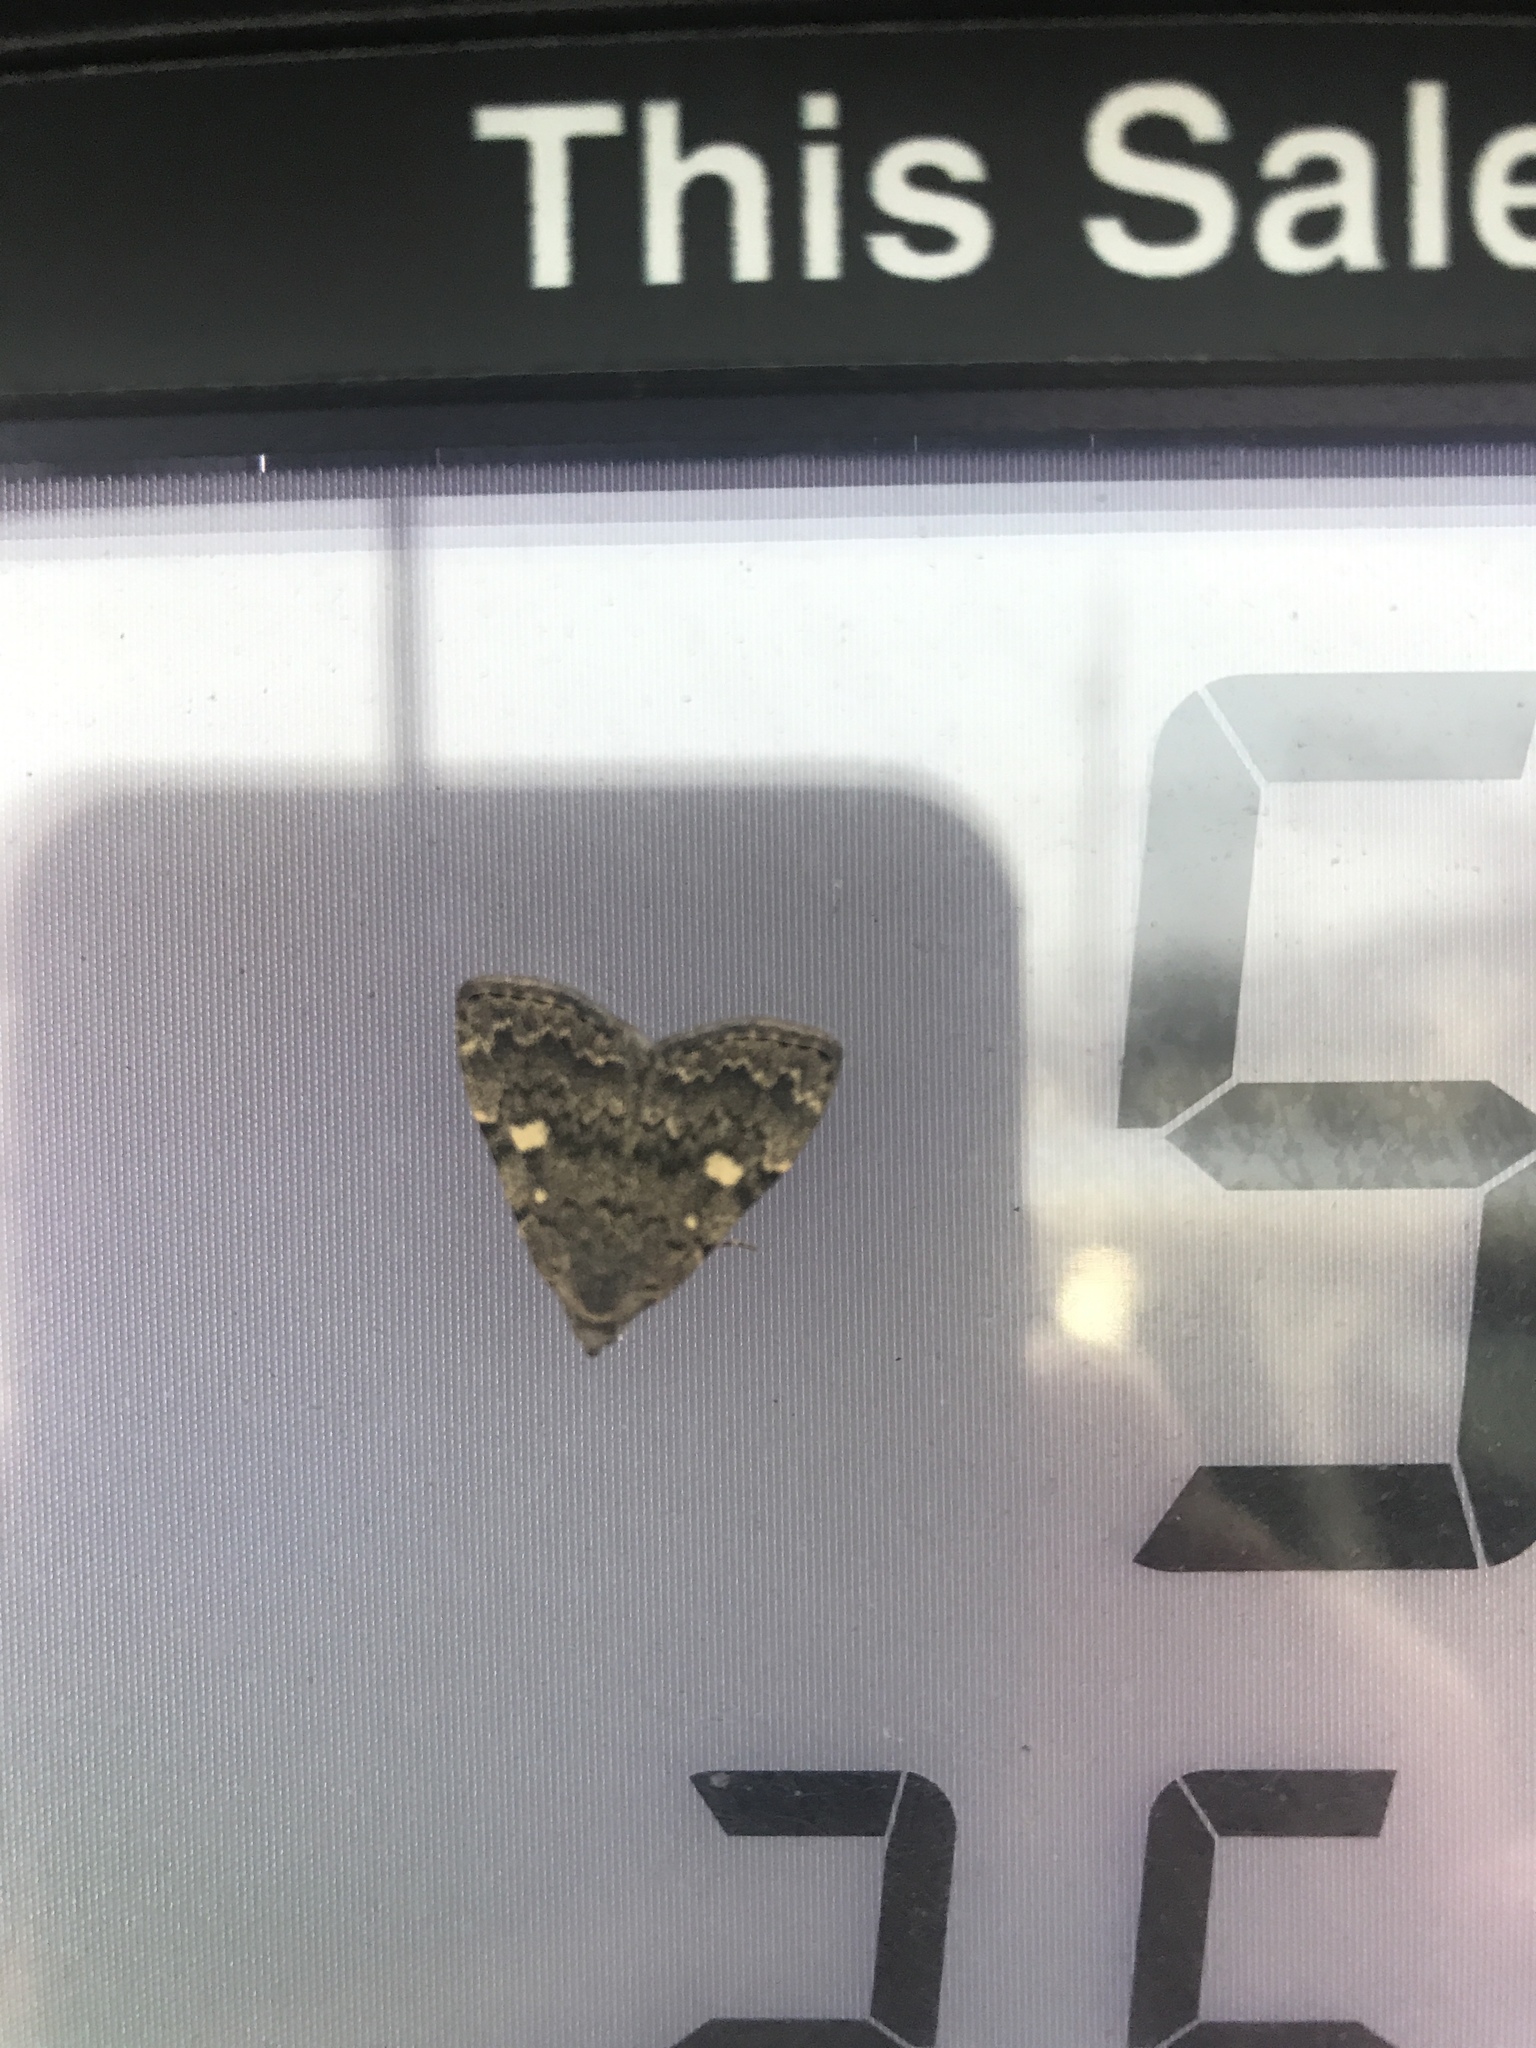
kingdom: Animalia
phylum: Arthropoda
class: Insecta
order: Lepidoptera
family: Erebidae
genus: Idia
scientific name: Idia aemula
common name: Common idia moth
